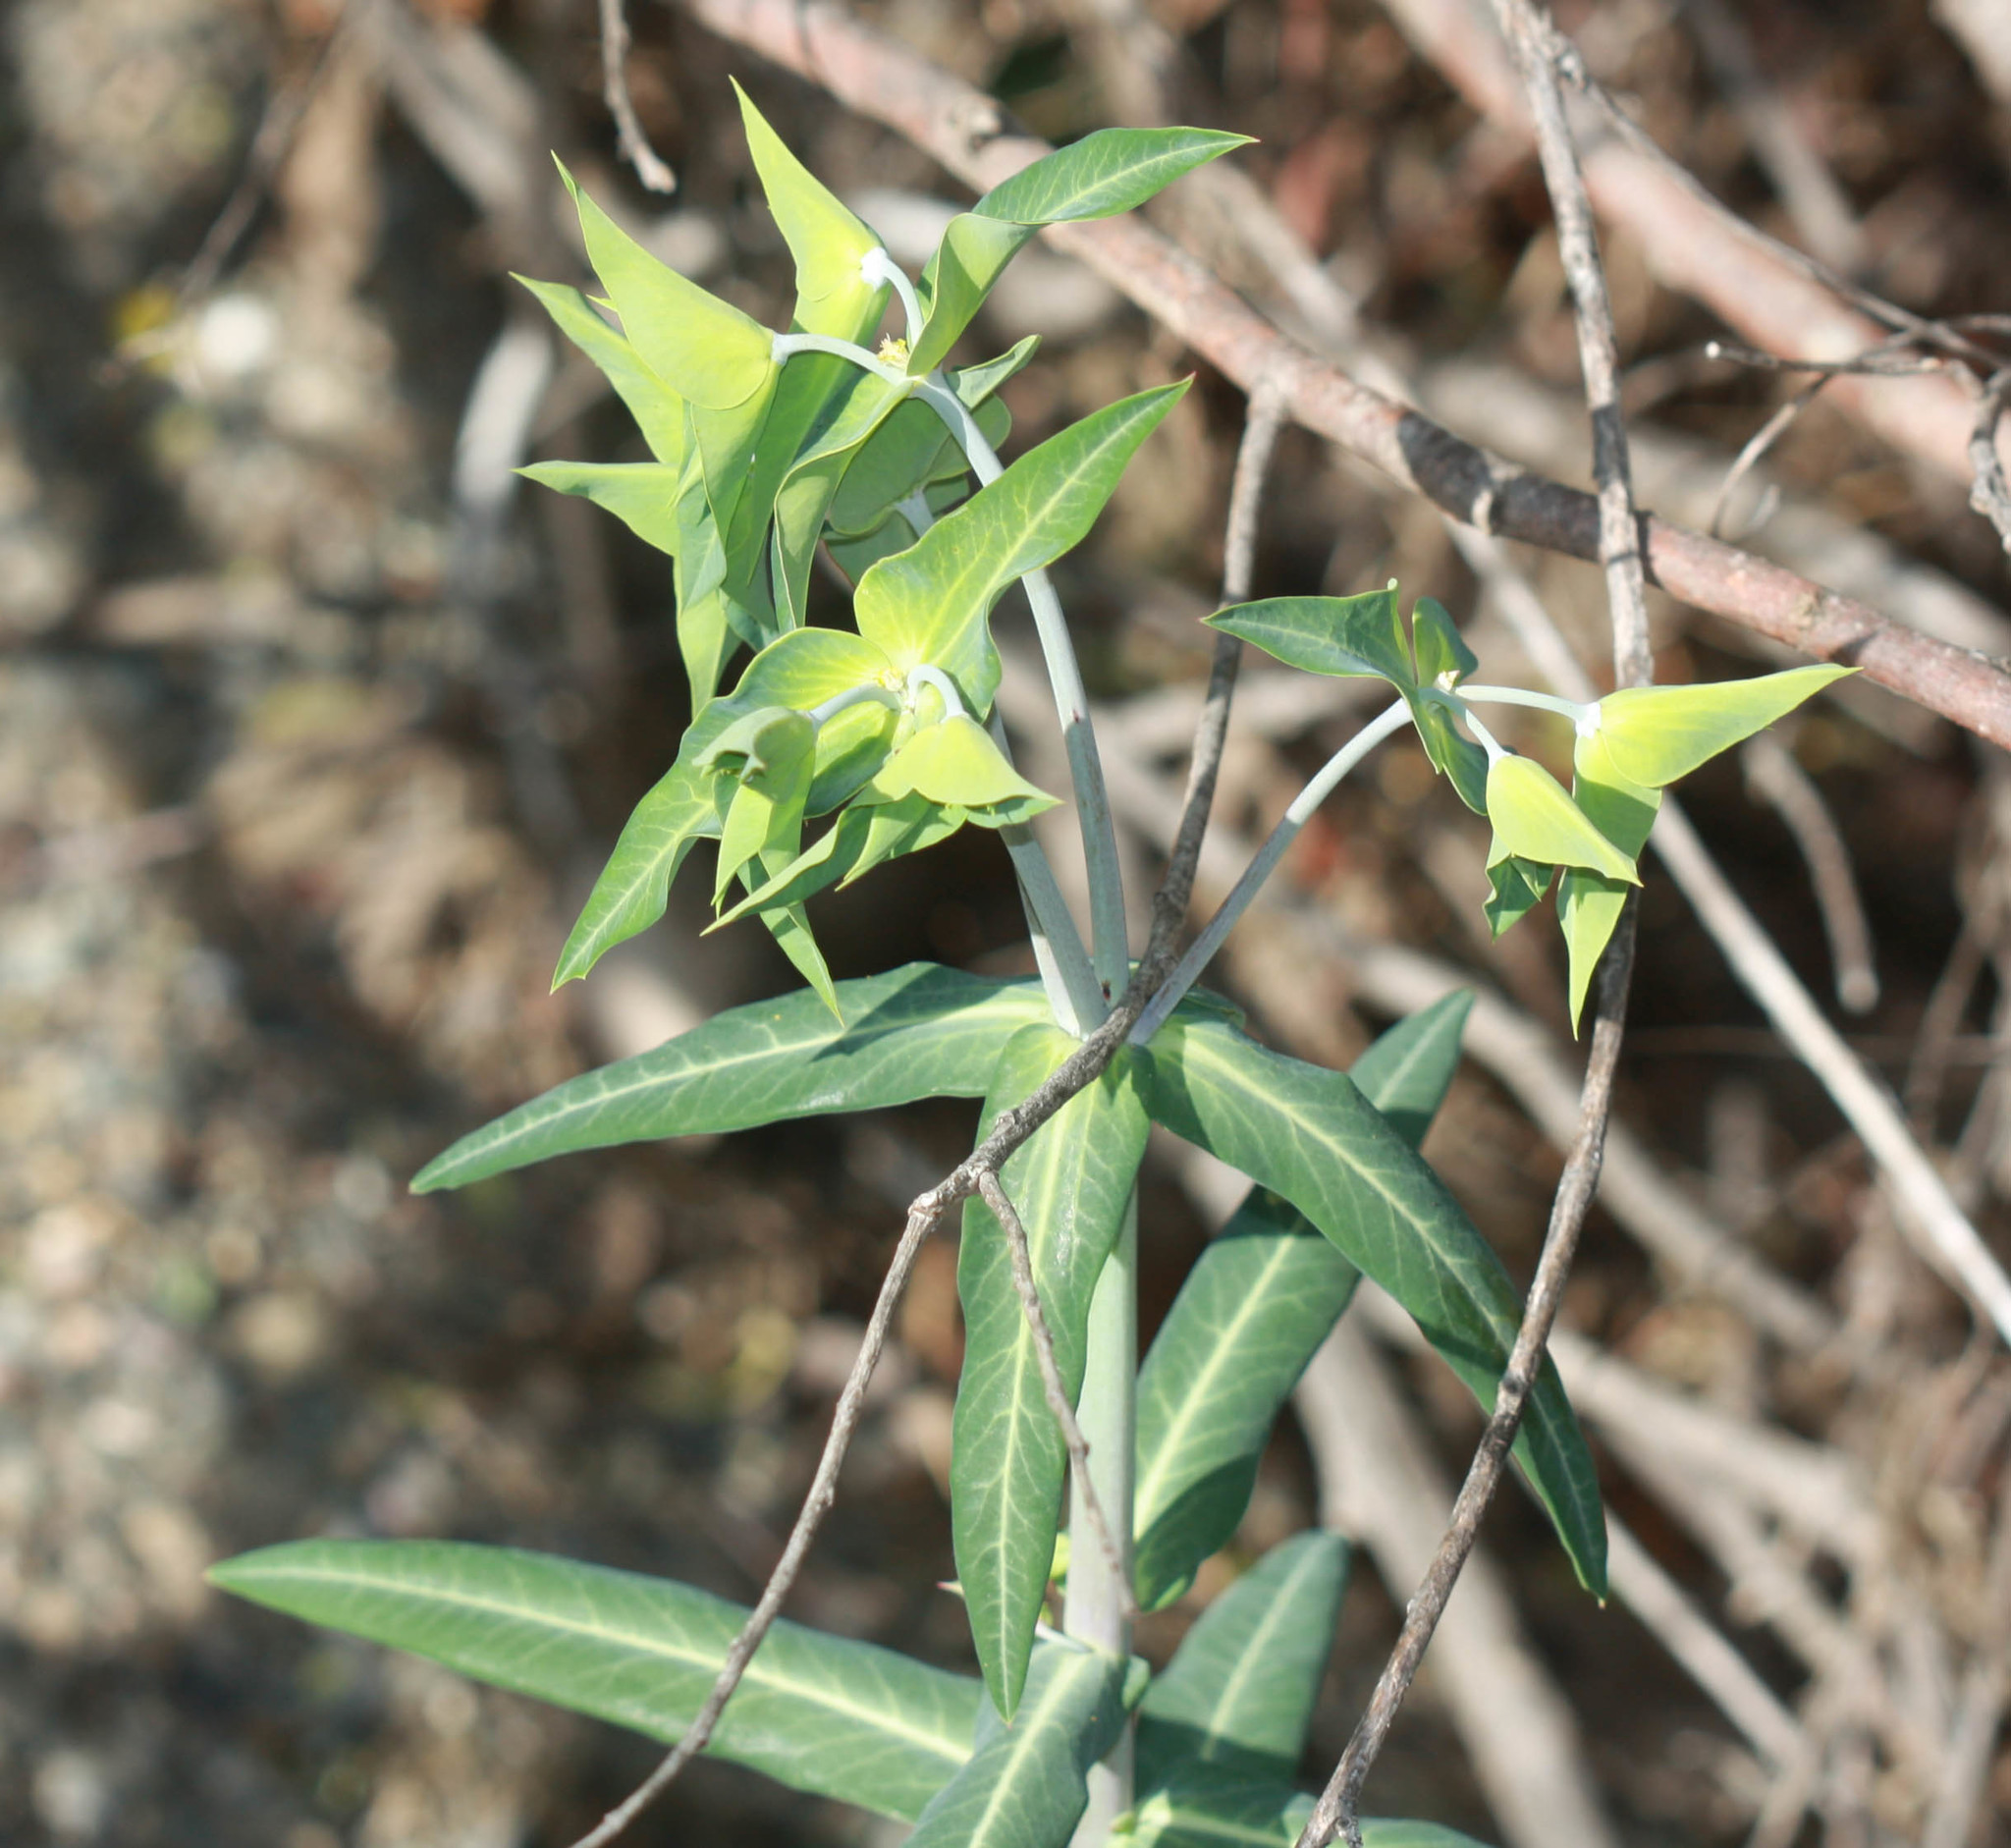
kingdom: Plantae
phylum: Tracheophyta
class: Magnoliopsida
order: Malpighiales
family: Euphorbiaceae
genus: Euphorbia
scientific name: Euphorbia lathyris
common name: Caper spurge
